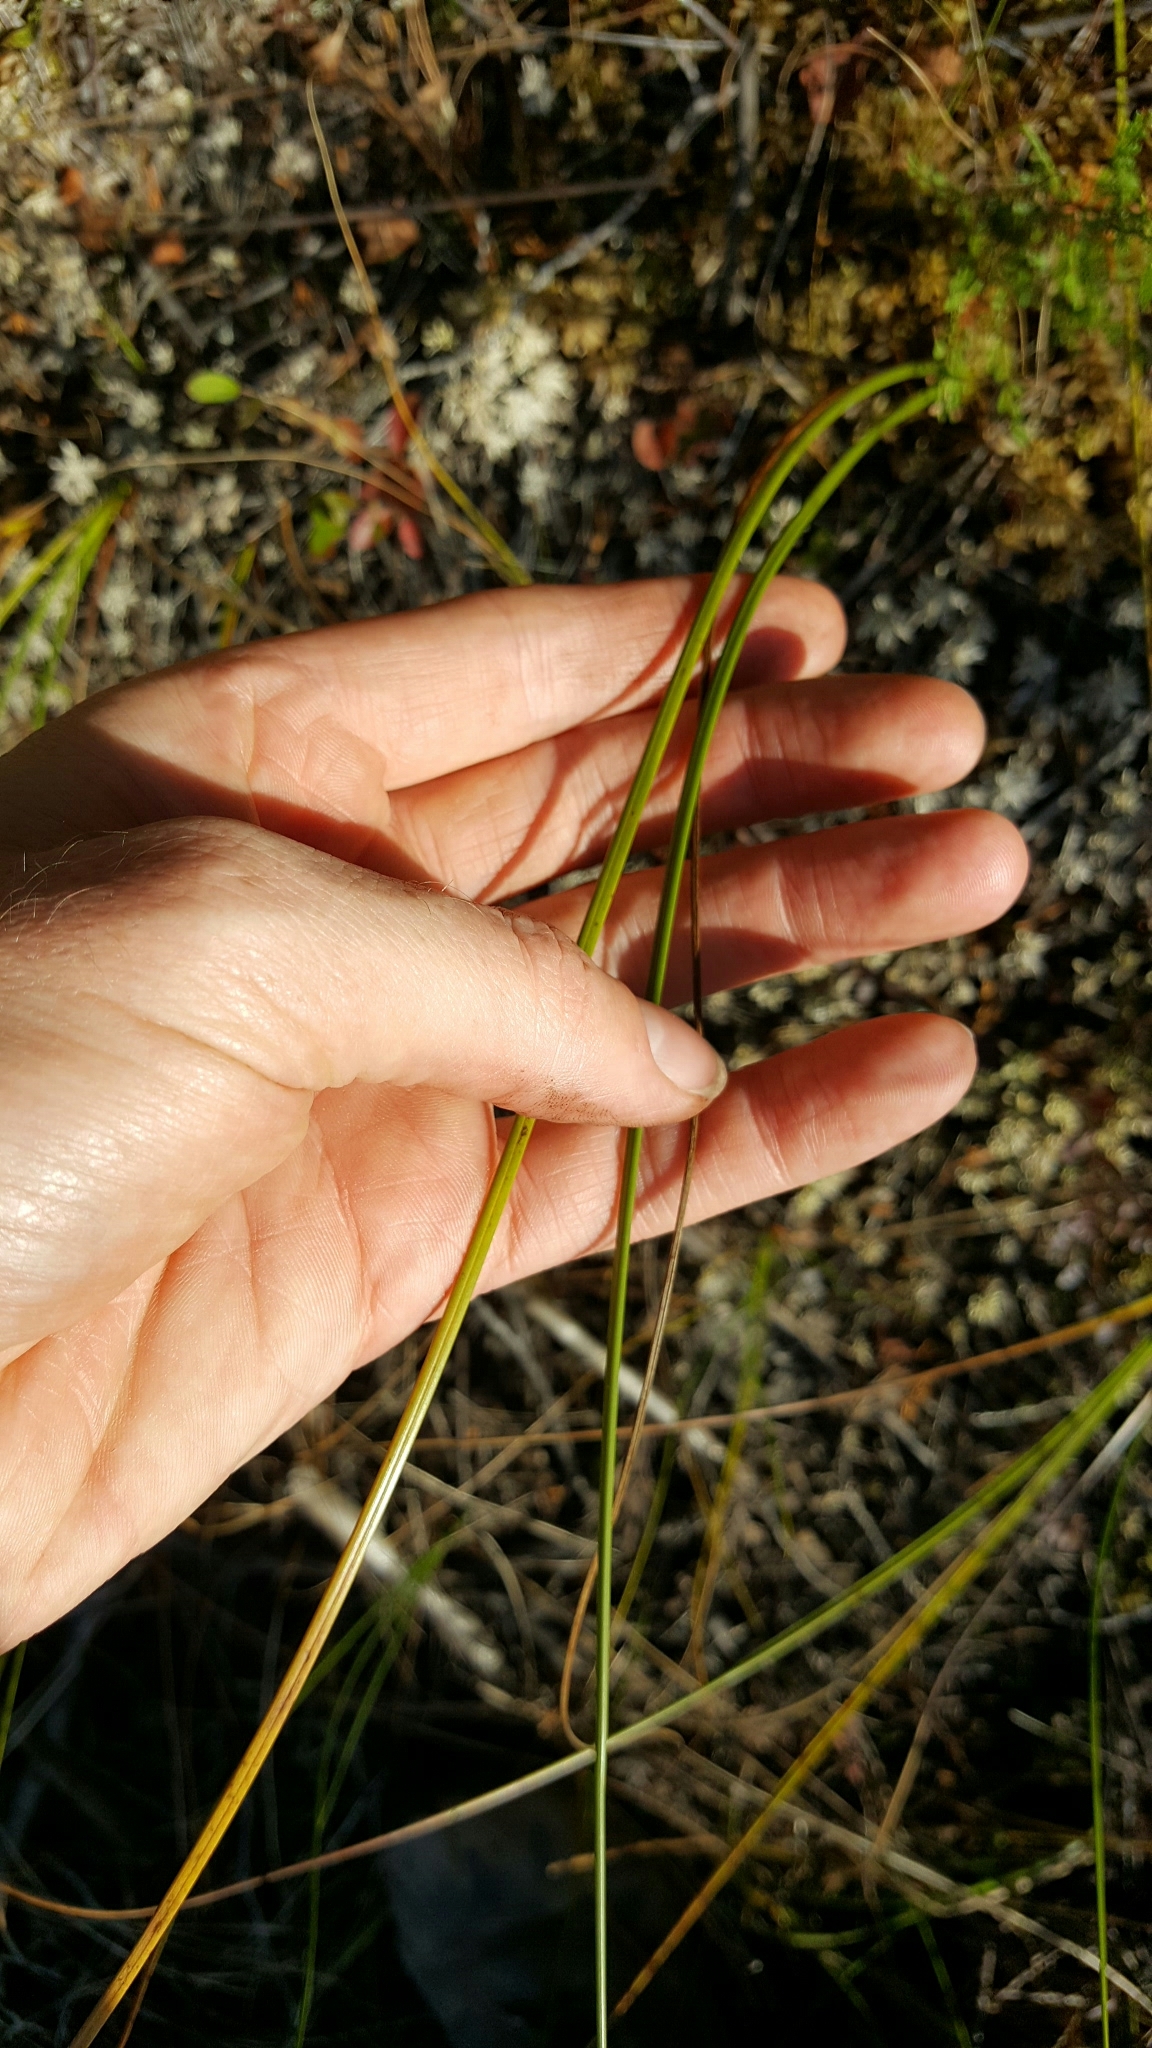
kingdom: Plantae
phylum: Tracheophyta
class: Liliopsida
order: Poales
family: Cyperaceae
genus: Cladium
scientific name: Cladium mariscoides
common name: Smooth sawgrass
